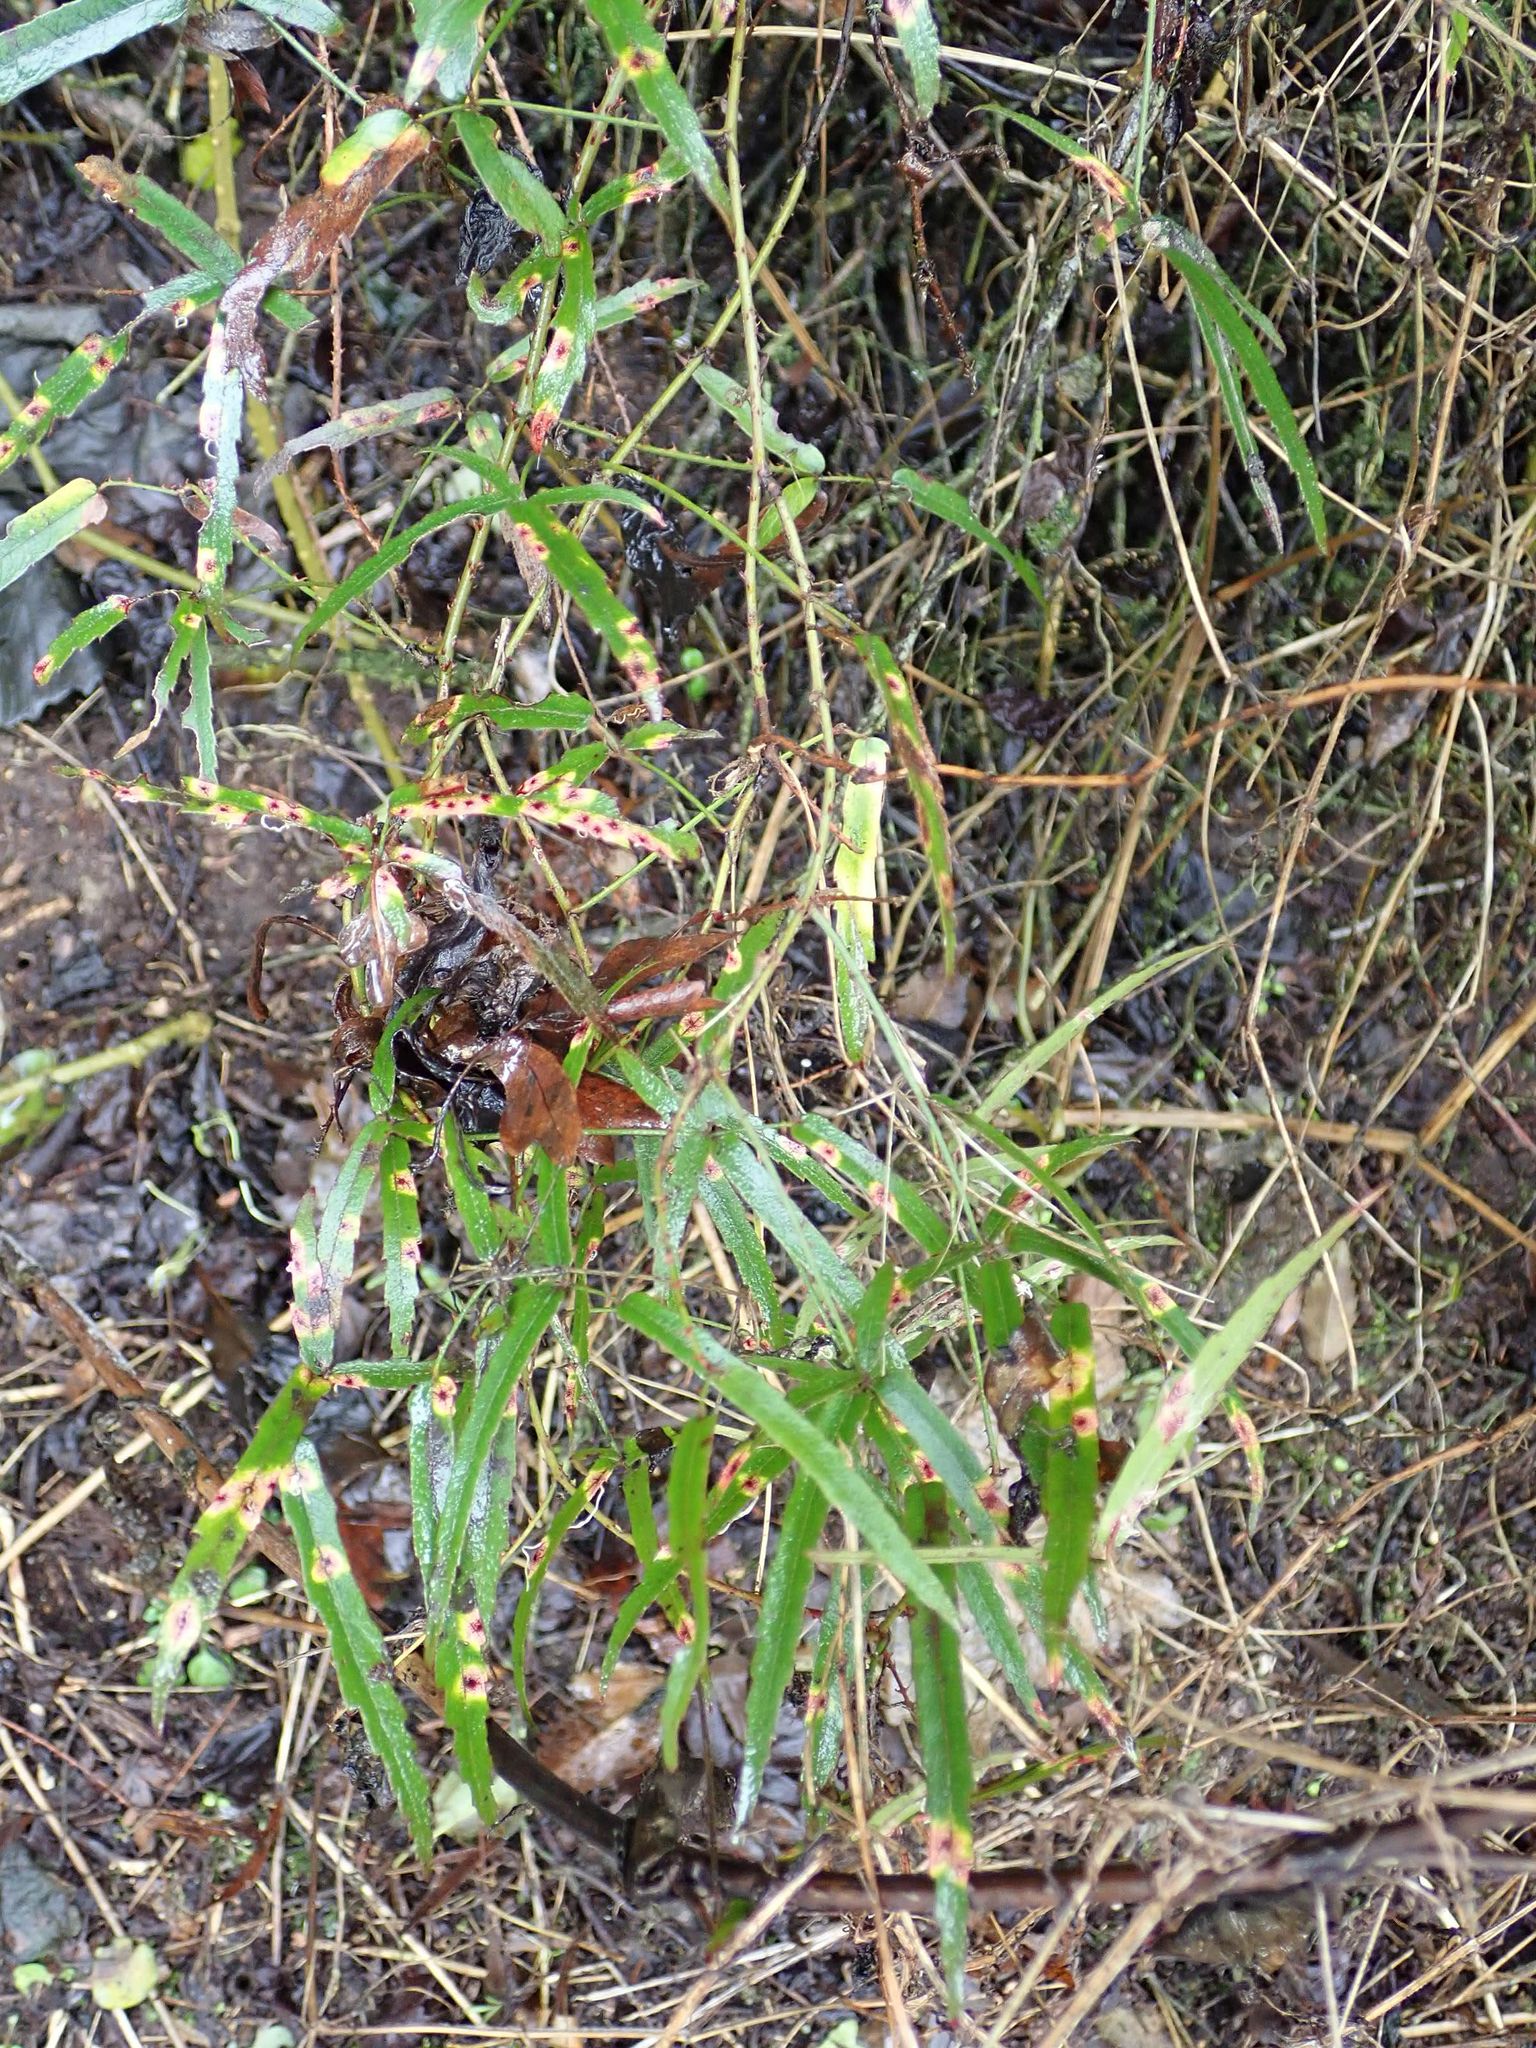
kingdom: Plantae
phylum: Tracheophyta
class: Magnoliopsida
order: Rosales
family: Rosaceae
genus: Rubus
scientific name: Rubus schmidelioides
